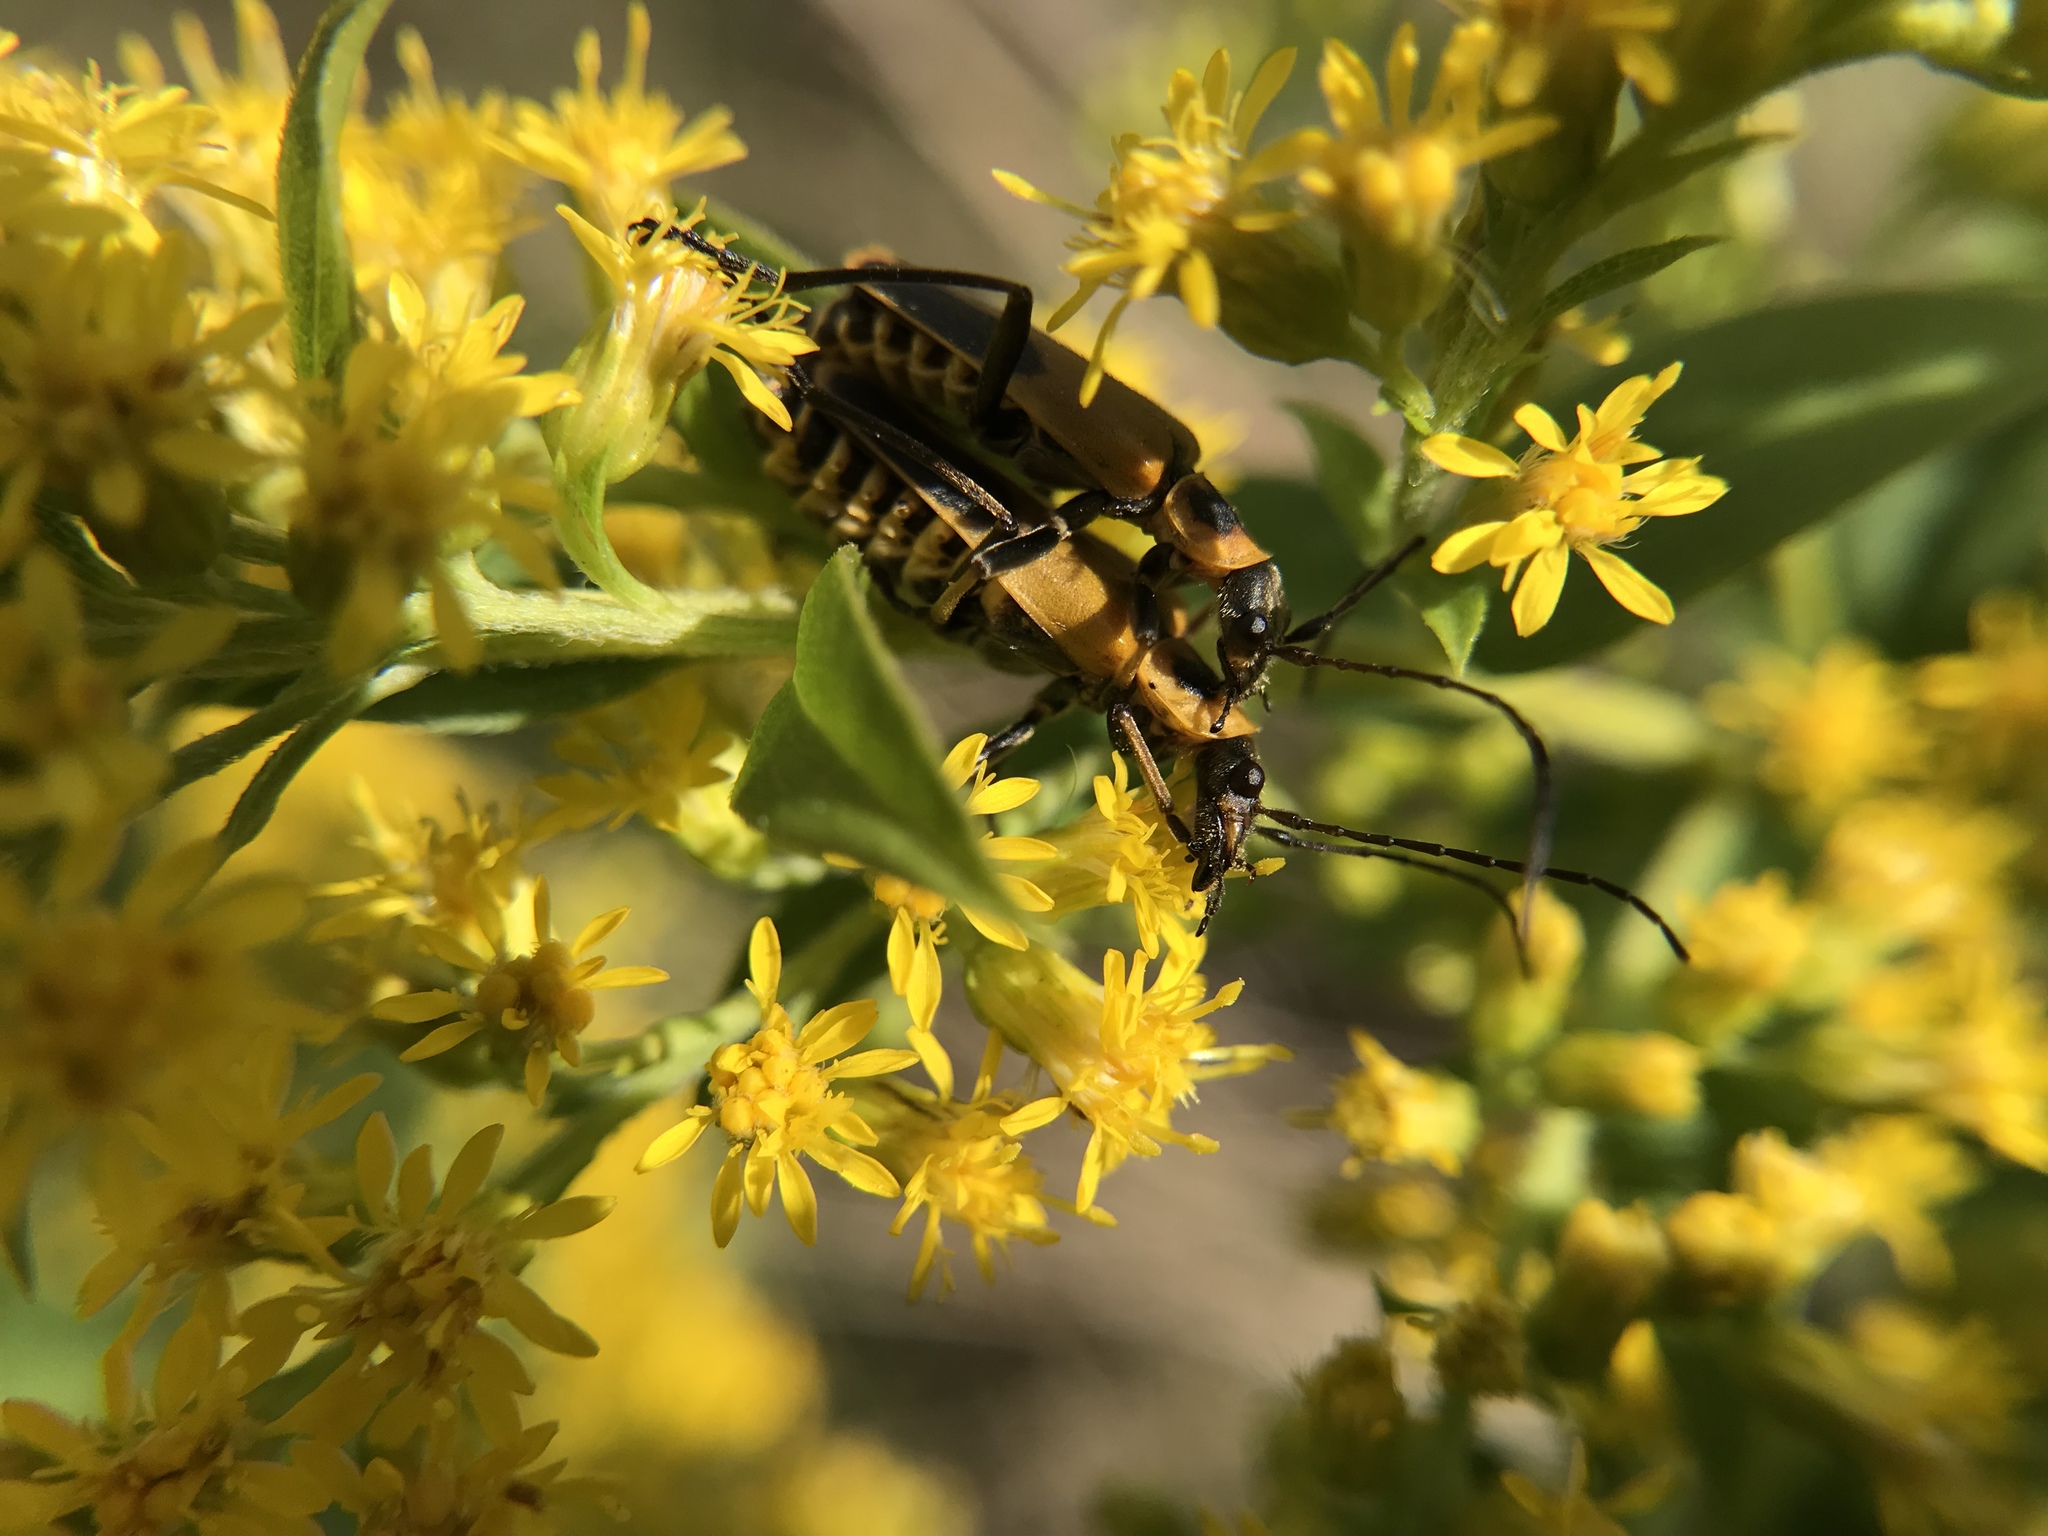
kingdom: Animalia
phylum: Arthropoda
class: Insecta
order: Coleoptera
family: Cantharidae
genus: Chauliognathus
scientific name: Chauliognathus pensylvanicus
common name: Goldenrod soldier beetle
